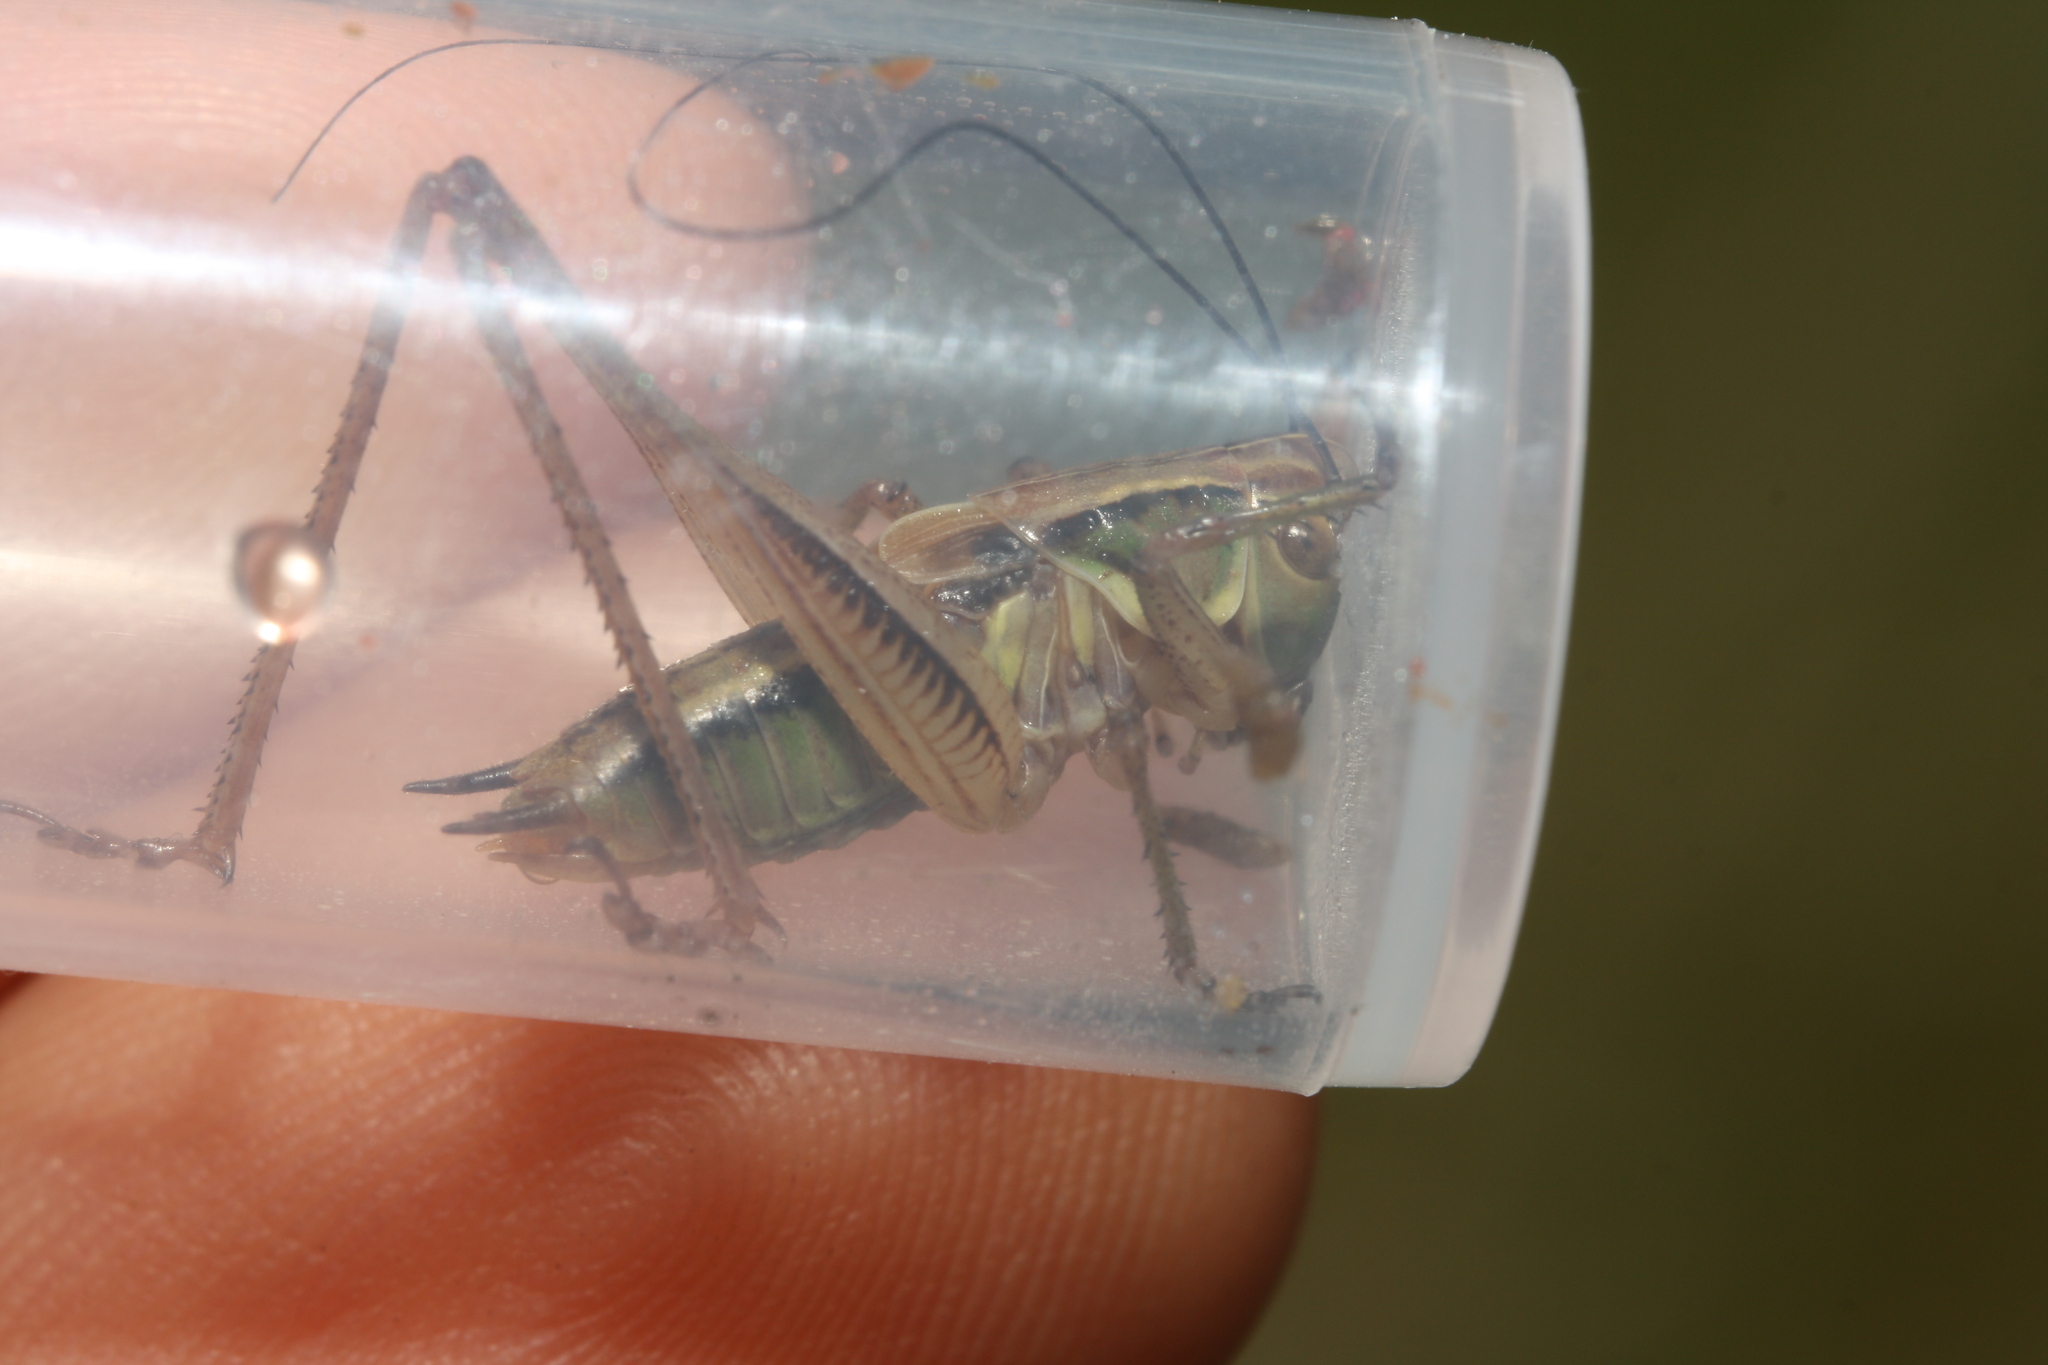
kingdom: Animalia
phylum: Arthropoda
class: Insecta
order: Orthoptera
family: Tettigoniidae
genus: Roeseliana
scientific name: Roeseliana roeselii
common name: Roesel's bush cricket
